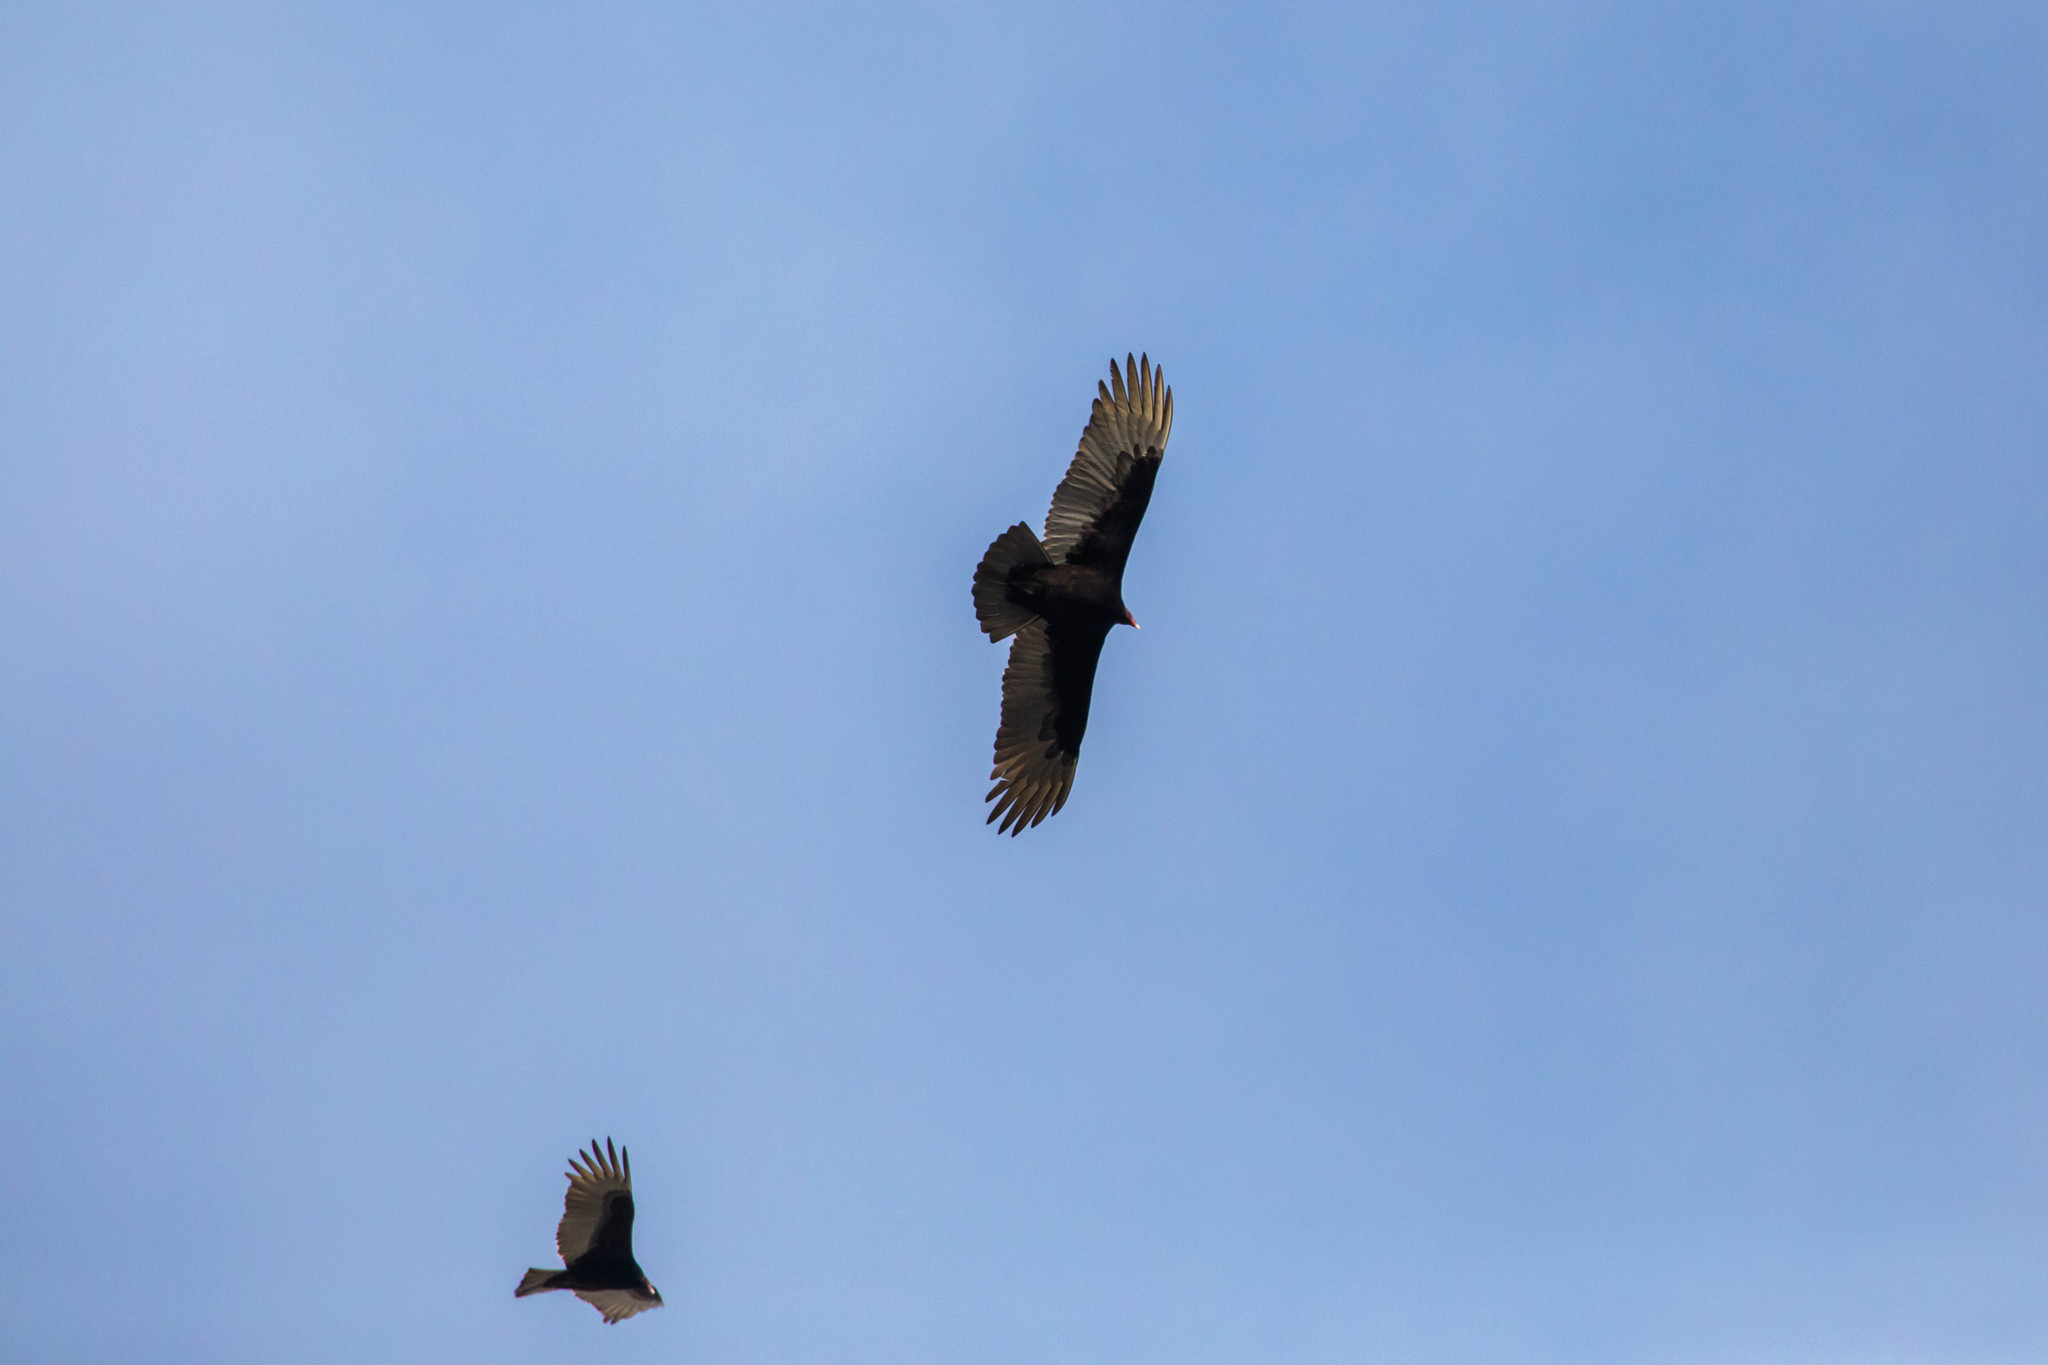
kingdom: Animalia
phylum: Chordata
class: Aves
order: Accipitriformes
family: Cathartidae
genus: Cathartes
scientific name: Cathartes aura
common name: Turkey vulture
